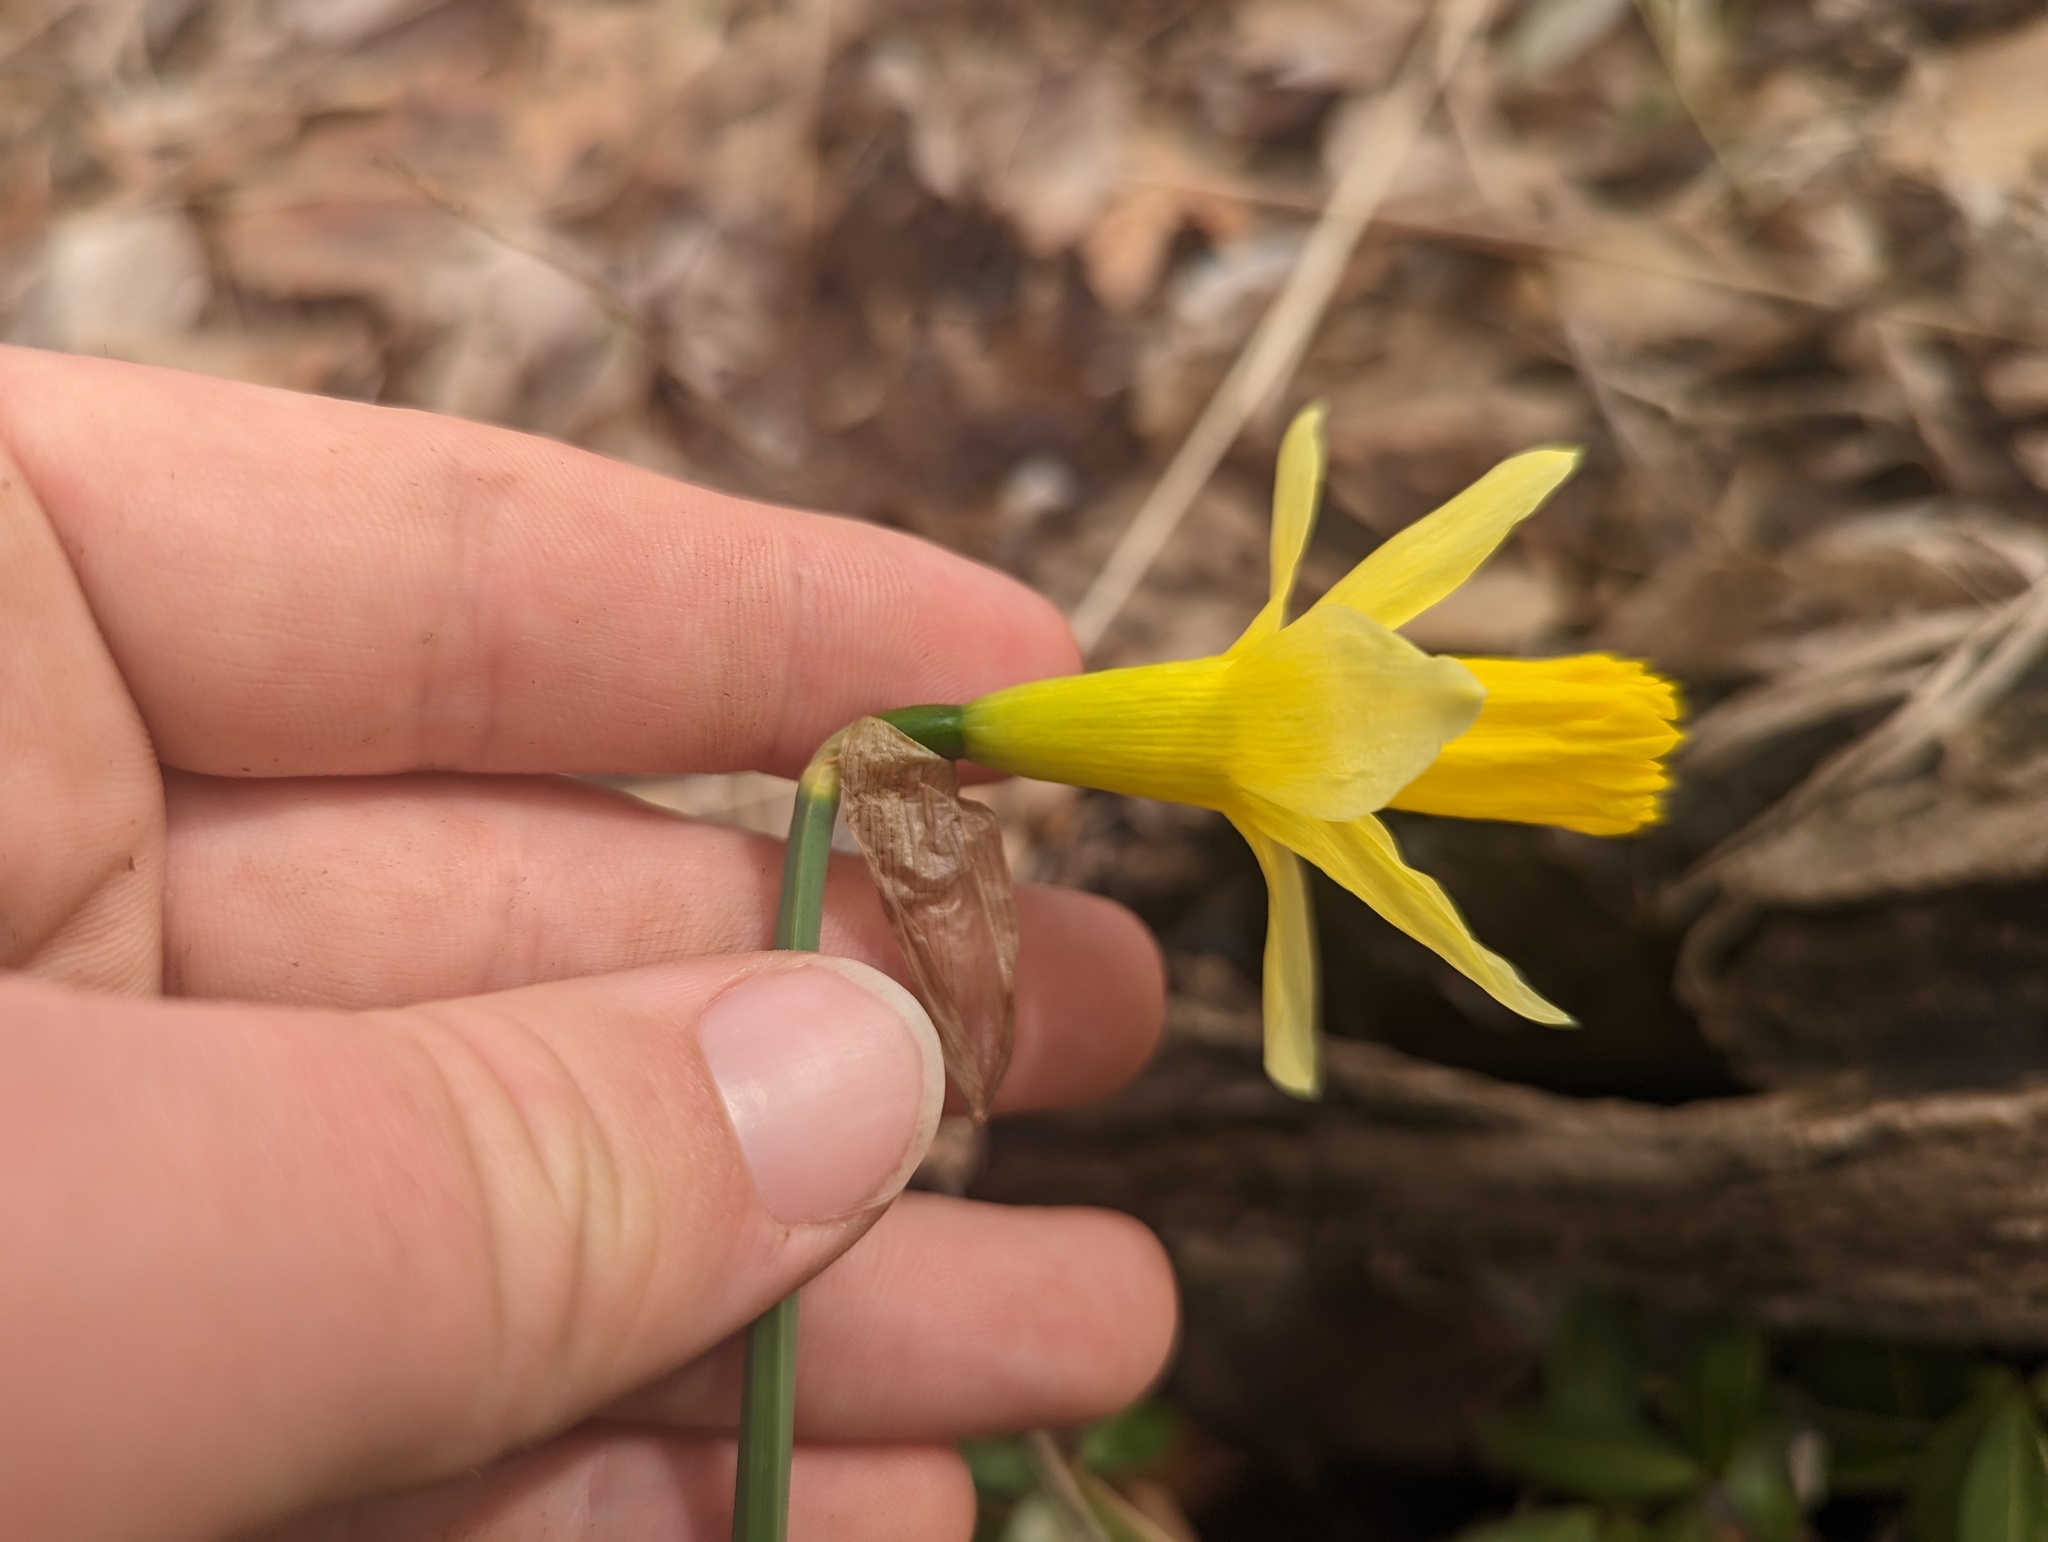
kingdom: Plantae
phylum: Tracheophyta
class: Liliopsida
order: Asparagales
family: Amaryllidaceae
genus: Narcissus
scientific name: Narcissus pseudonarcissus
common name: Daffodil
